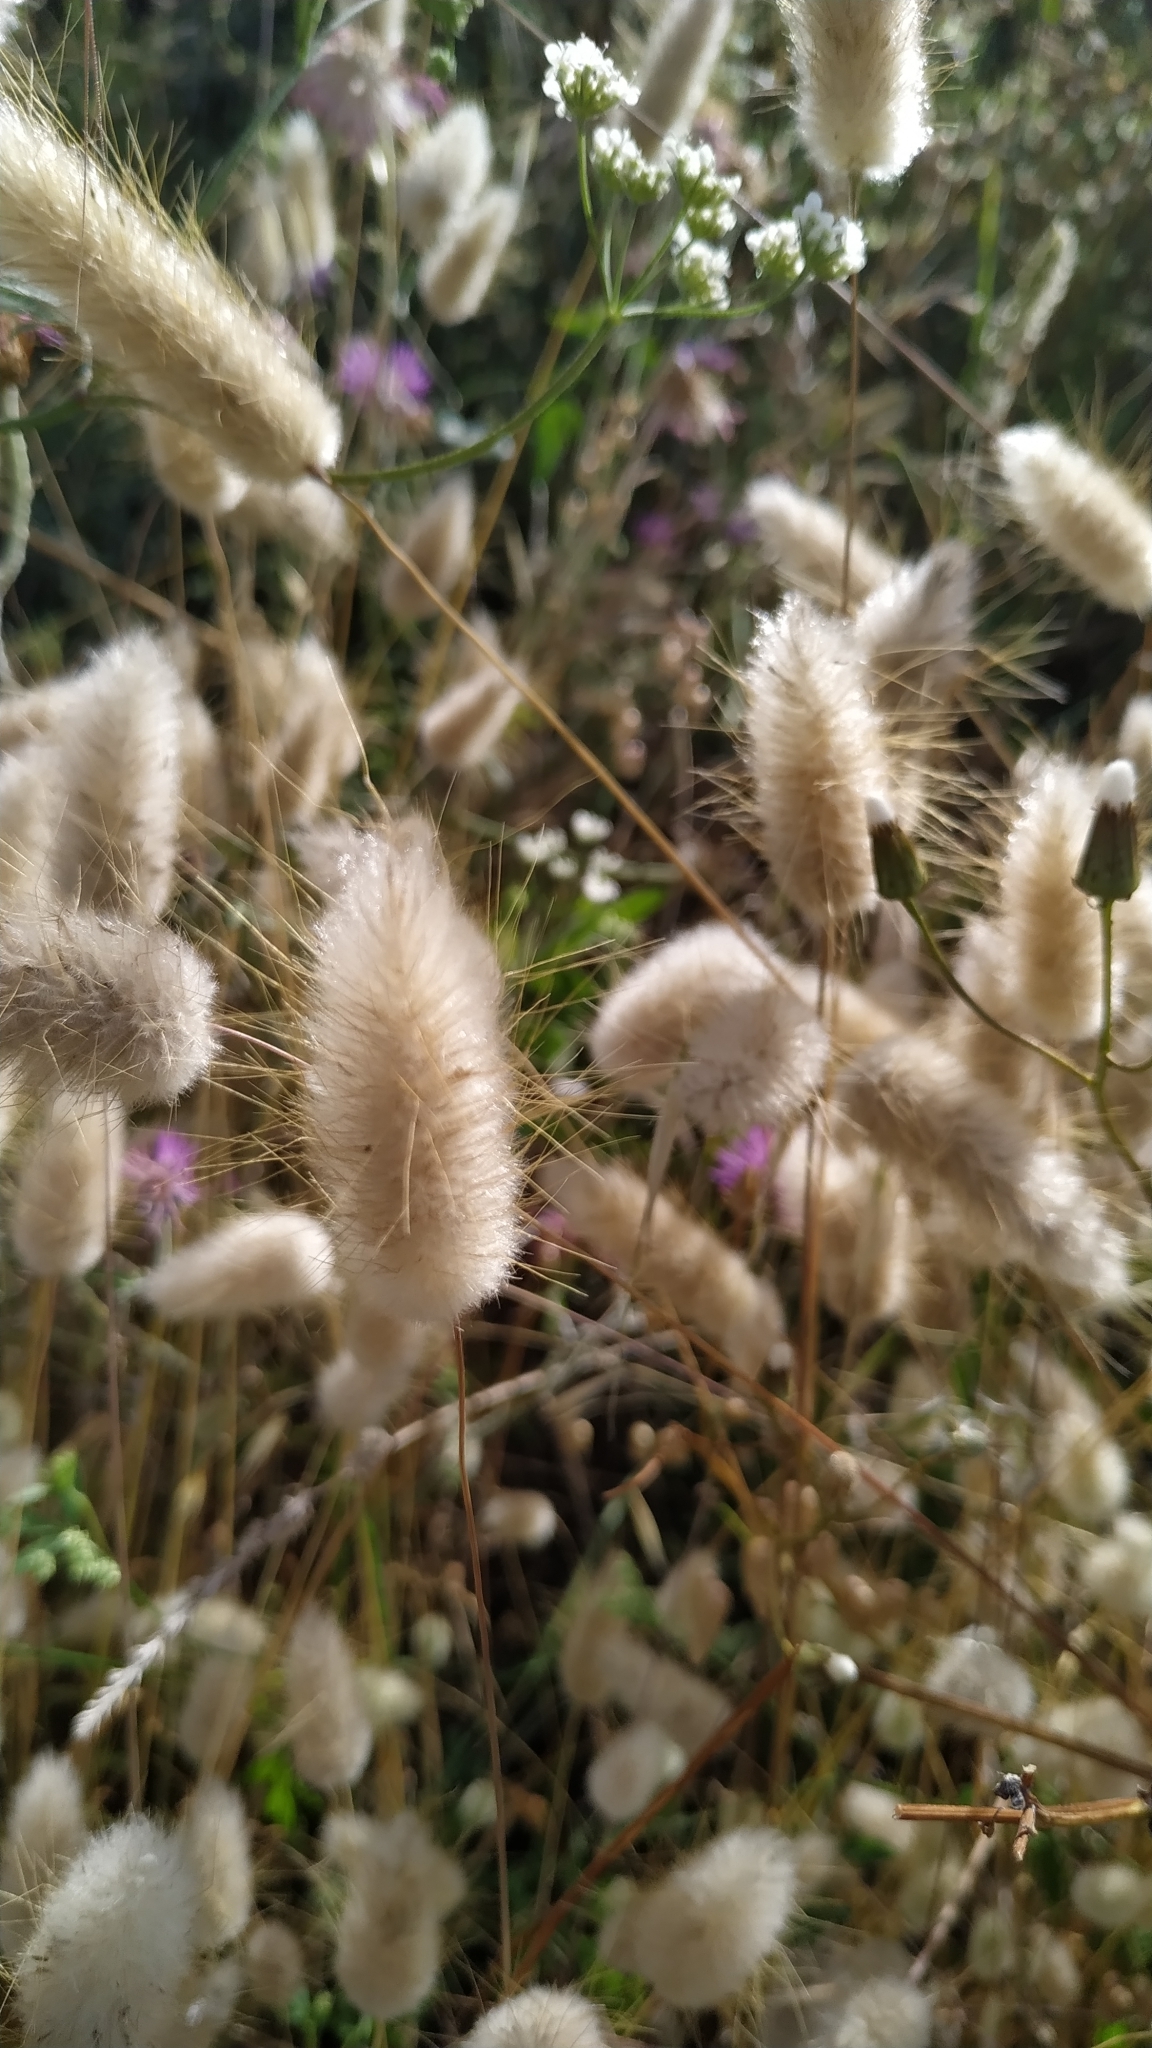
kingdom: Plantae
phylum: Tracheophyta
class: Liliopsida
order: Poales
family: Poaceae
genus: Lagurus
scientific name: Lagurus ovatus
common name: Hare's-tail
